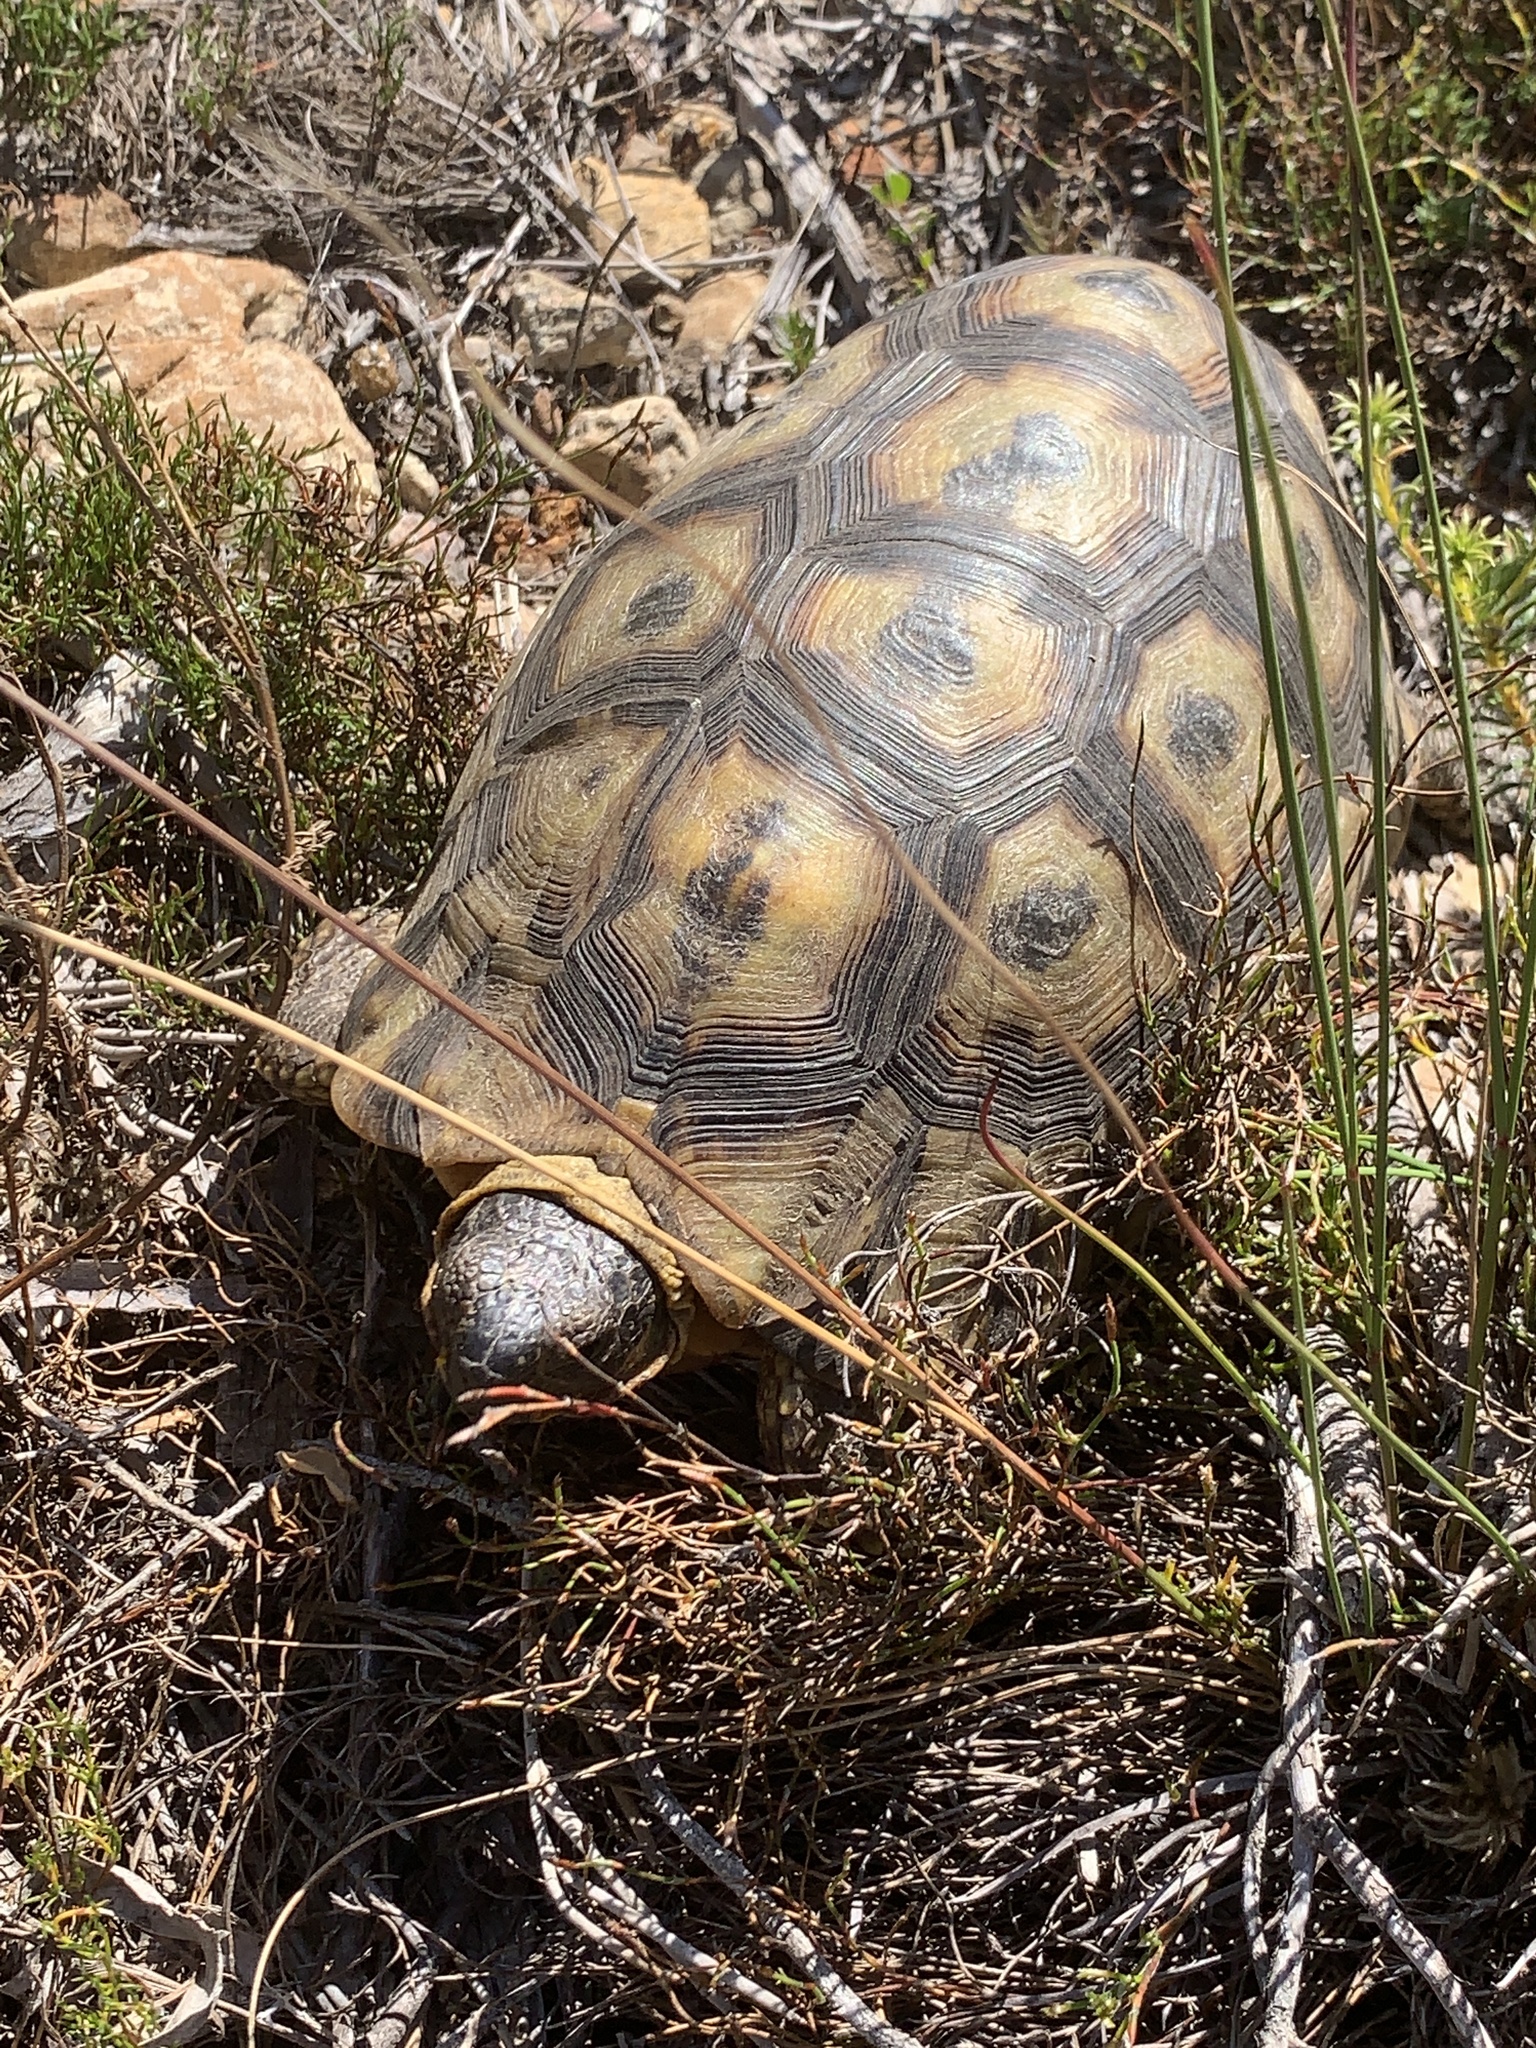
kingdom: Animalia
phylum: Chordata
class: Testudines
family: Testudinidae
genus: Chersina
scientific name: Chersina angulata
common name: South african bowsprit tortoise
